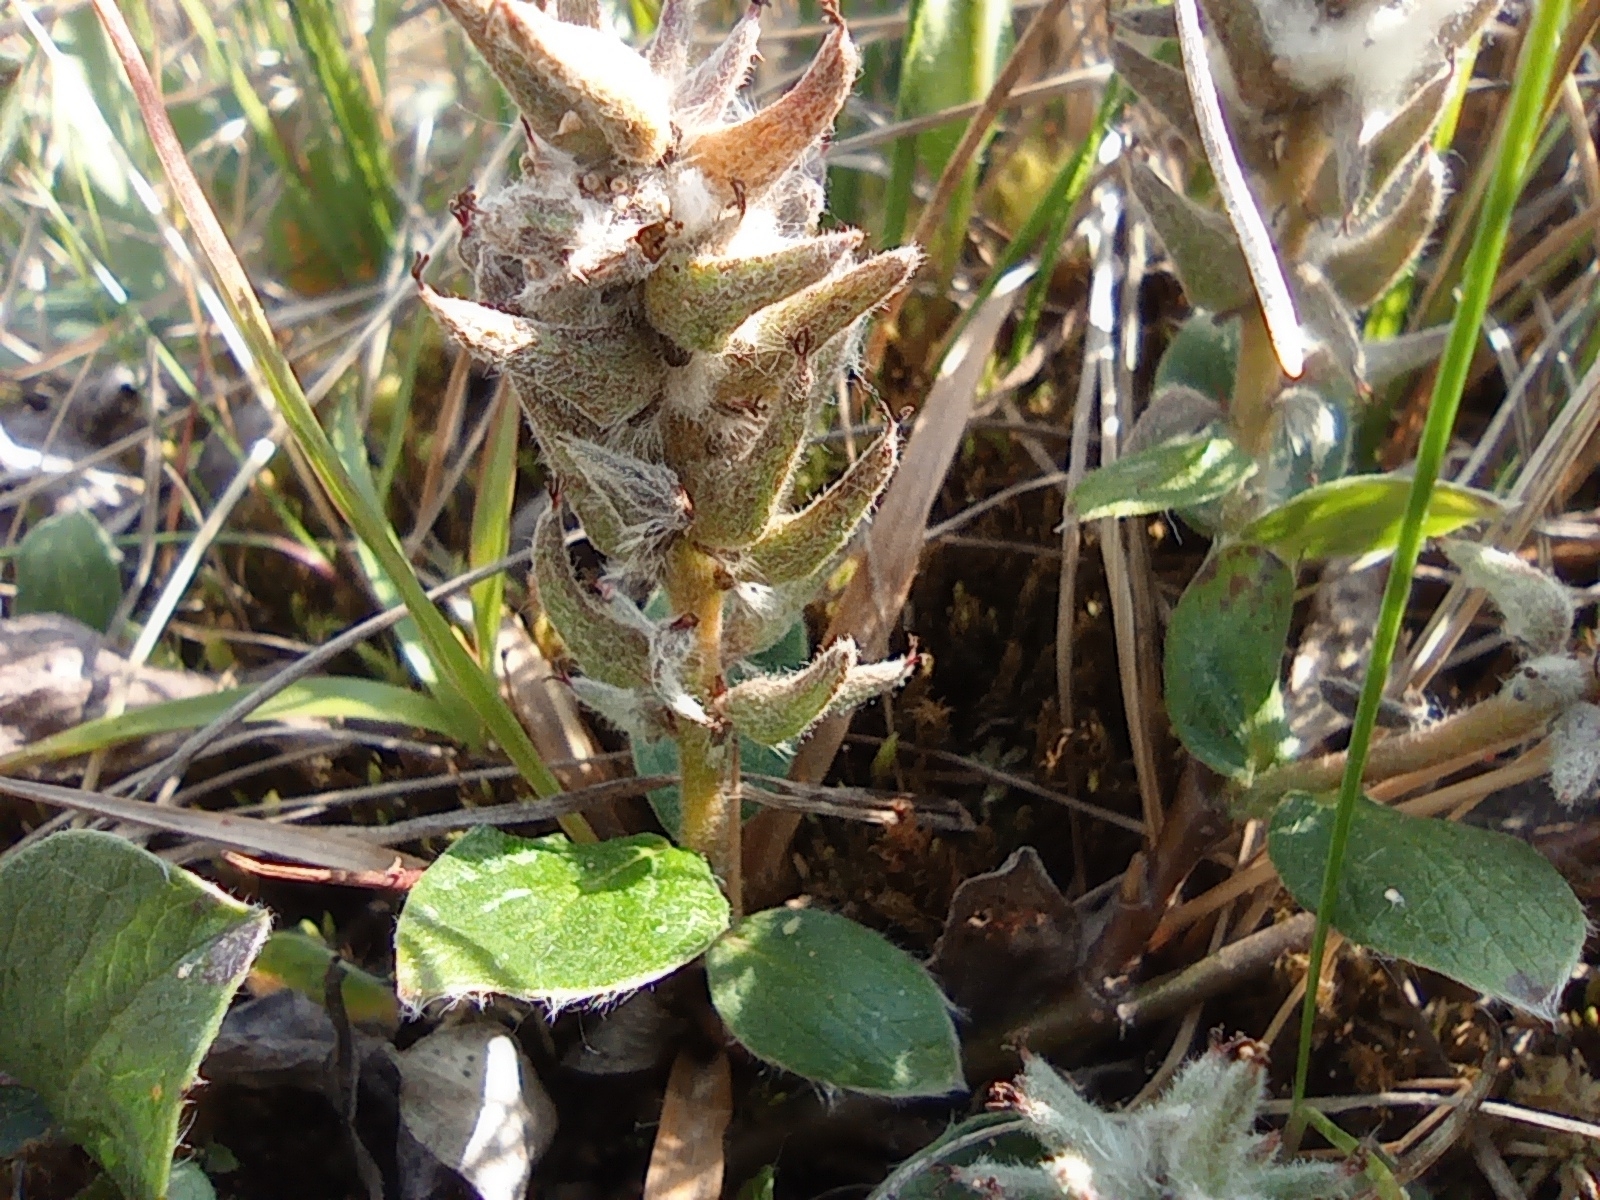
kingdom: Plantae
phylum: Tracheophyta
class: Magnoliopsida
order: Malpighiales
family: Salicaceae
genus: Salix
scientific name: Salix pulchra
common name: Diamond-leaved willow
